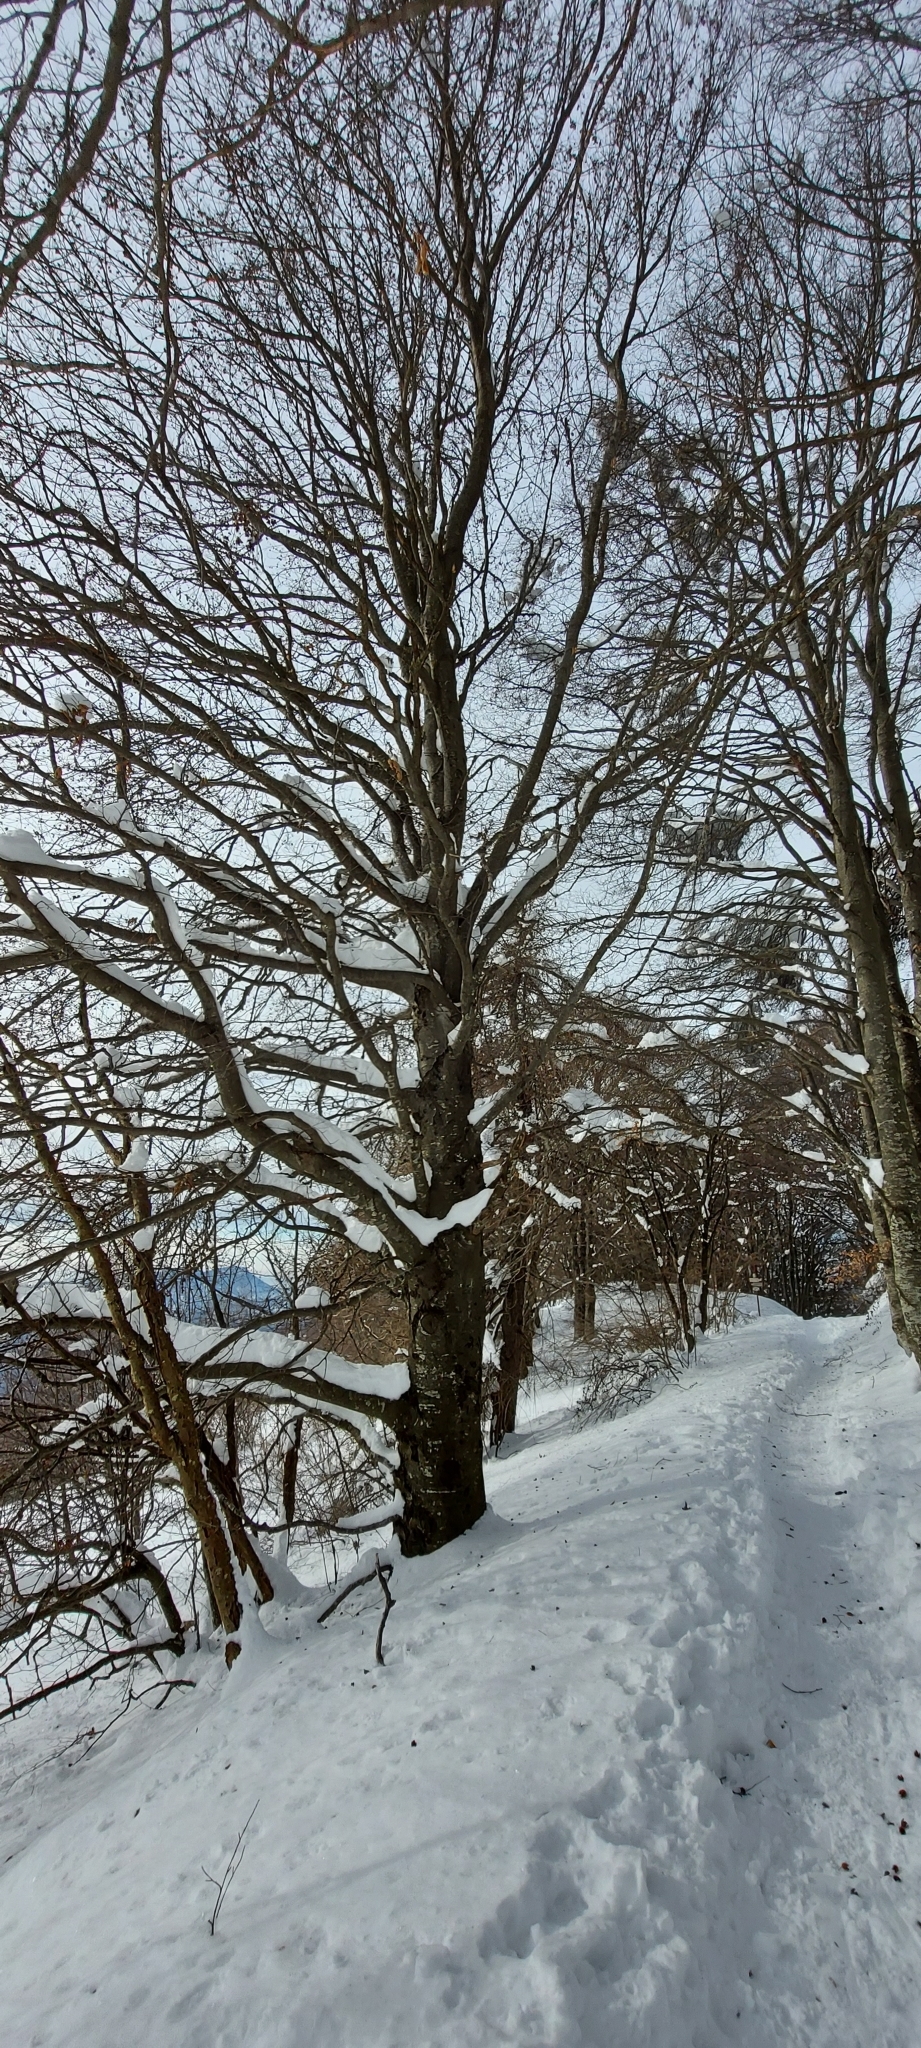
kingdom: Plantae
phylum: Tracheophyta
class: Magnoliopsida
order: Fagales
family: Fagaceae
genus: Fagus
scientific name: Fagus sylvatica
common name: Beech
